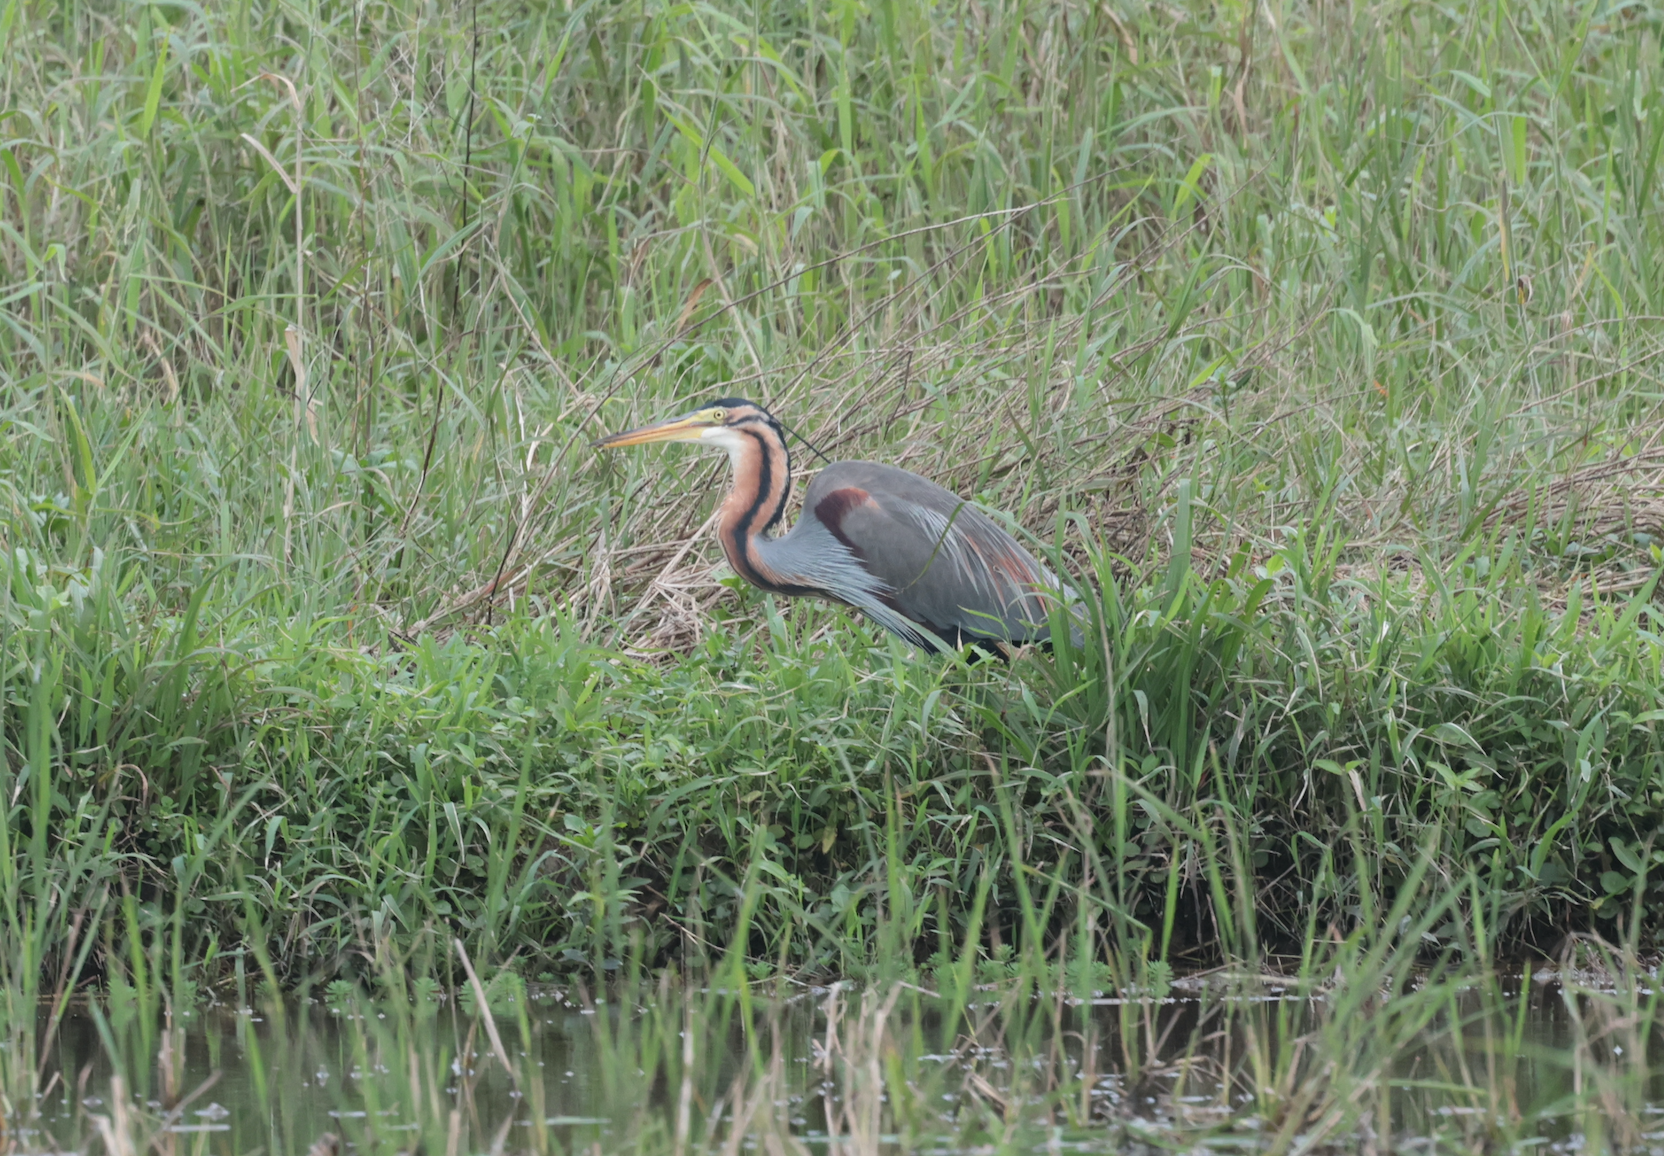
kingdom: Animalia
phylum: Chordata
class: Aves
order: Pelecaniformes
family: Ardeidae
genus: Ardea
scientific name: Ardea purpurea
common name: Purple heron
